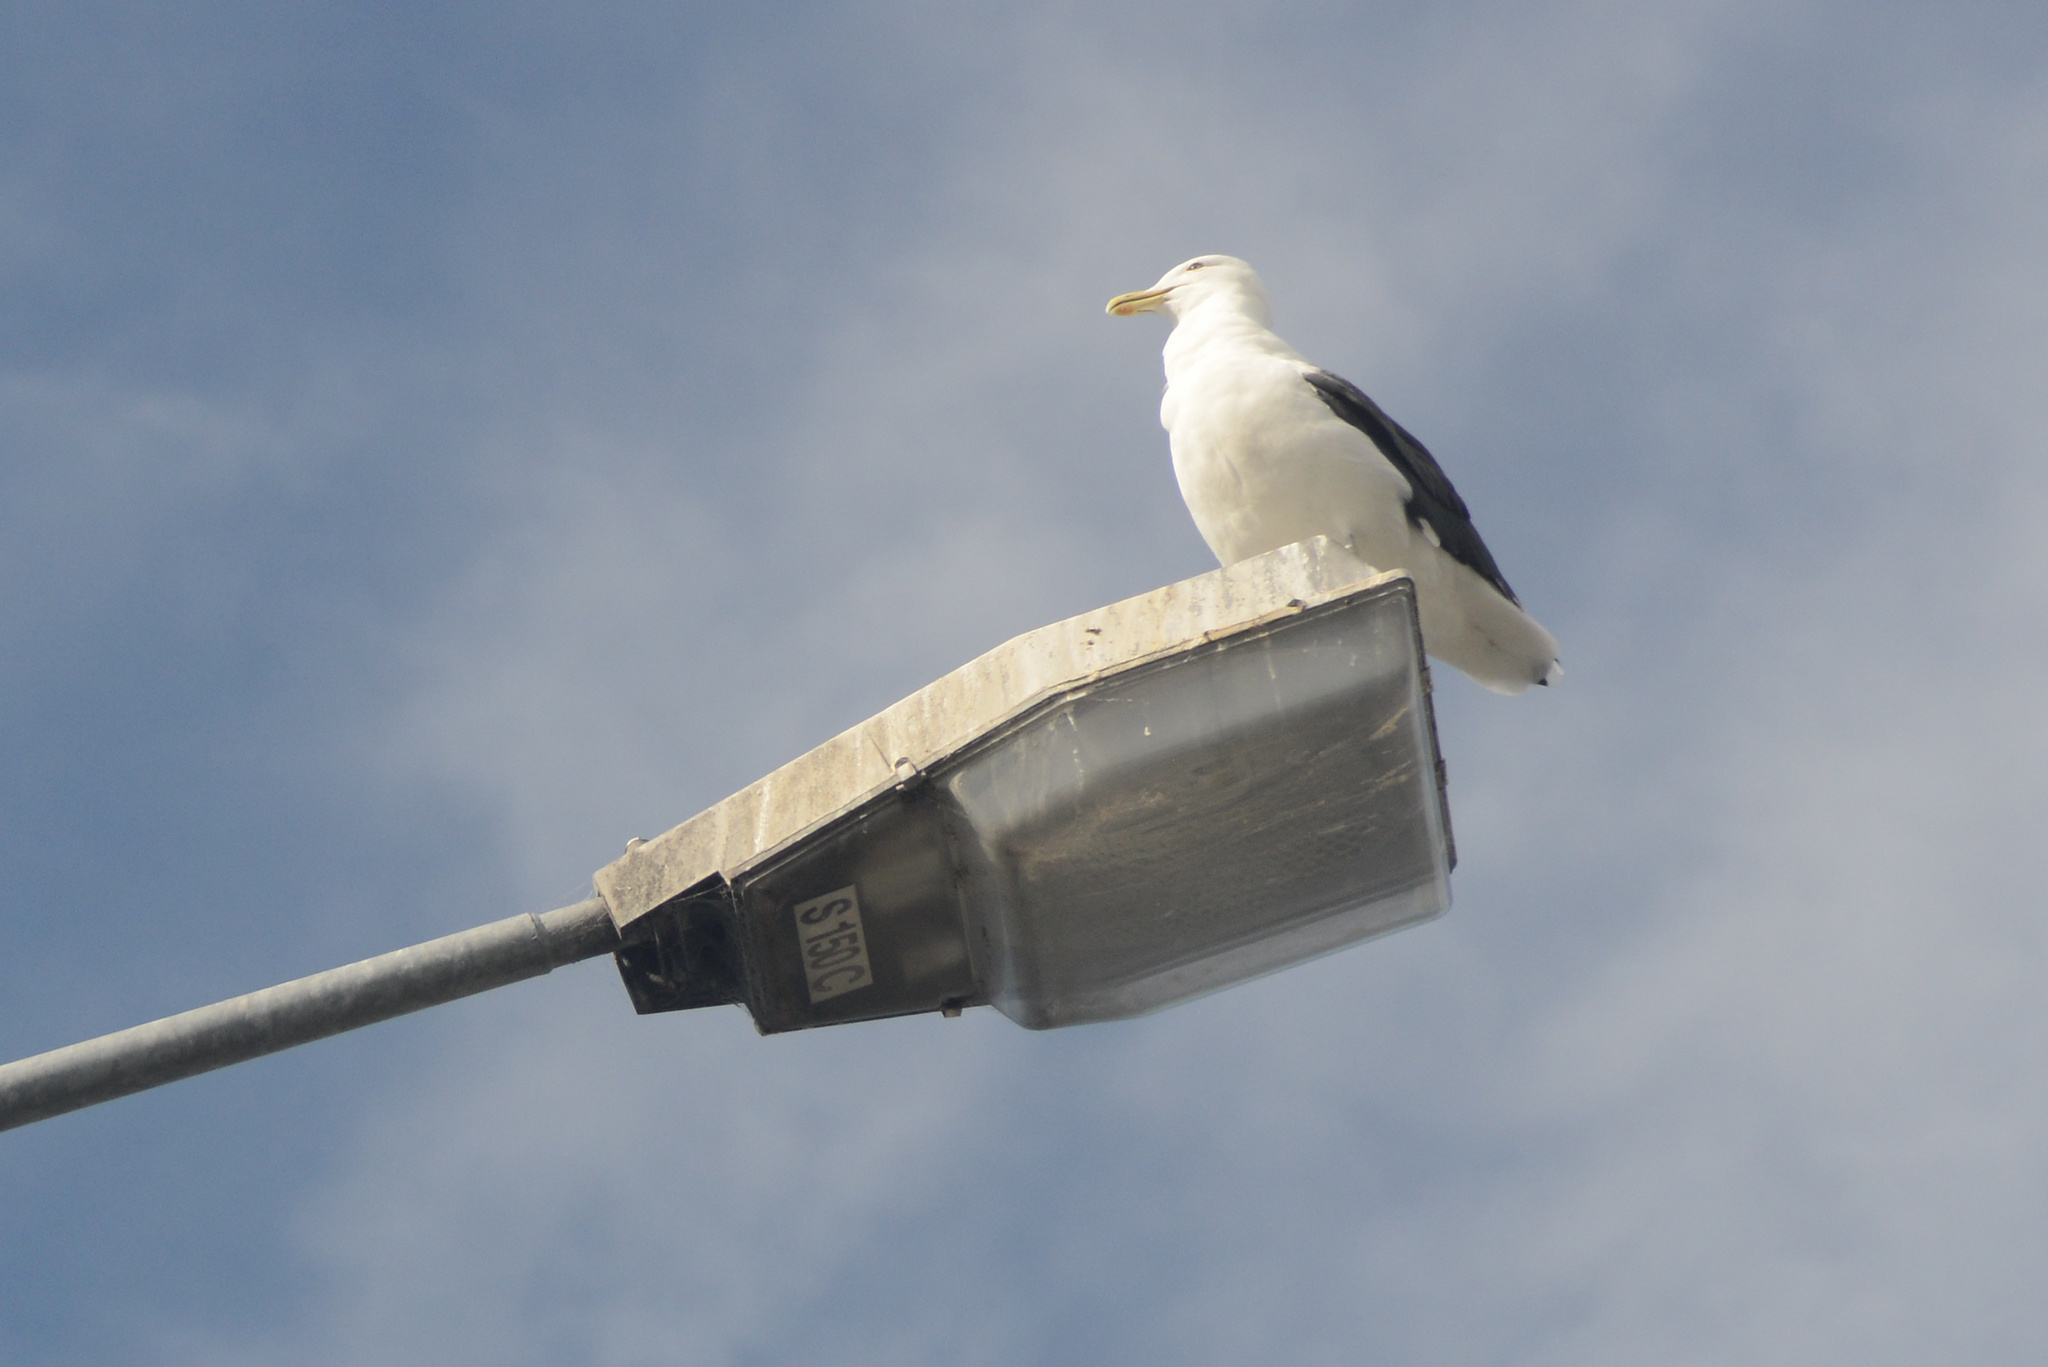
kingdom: Animalia
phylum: Chordata
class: Aves
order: Charadriiformes
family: Laridae
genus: Larus
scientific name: Larus dominicanus
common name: Kelp gull
